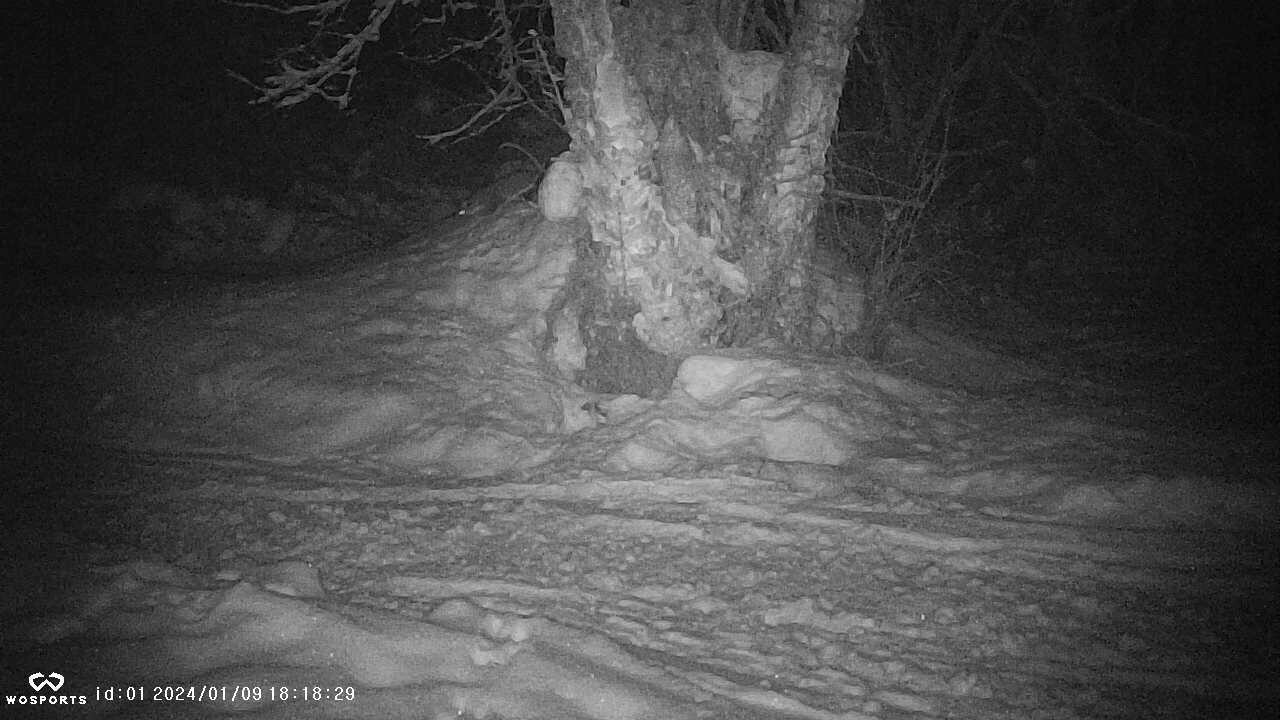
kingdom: Animalia
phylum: Chordata
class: Mammalia
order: Carnivora
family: Mustelidae
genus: Martes
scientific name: Martes americana
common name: American marten
